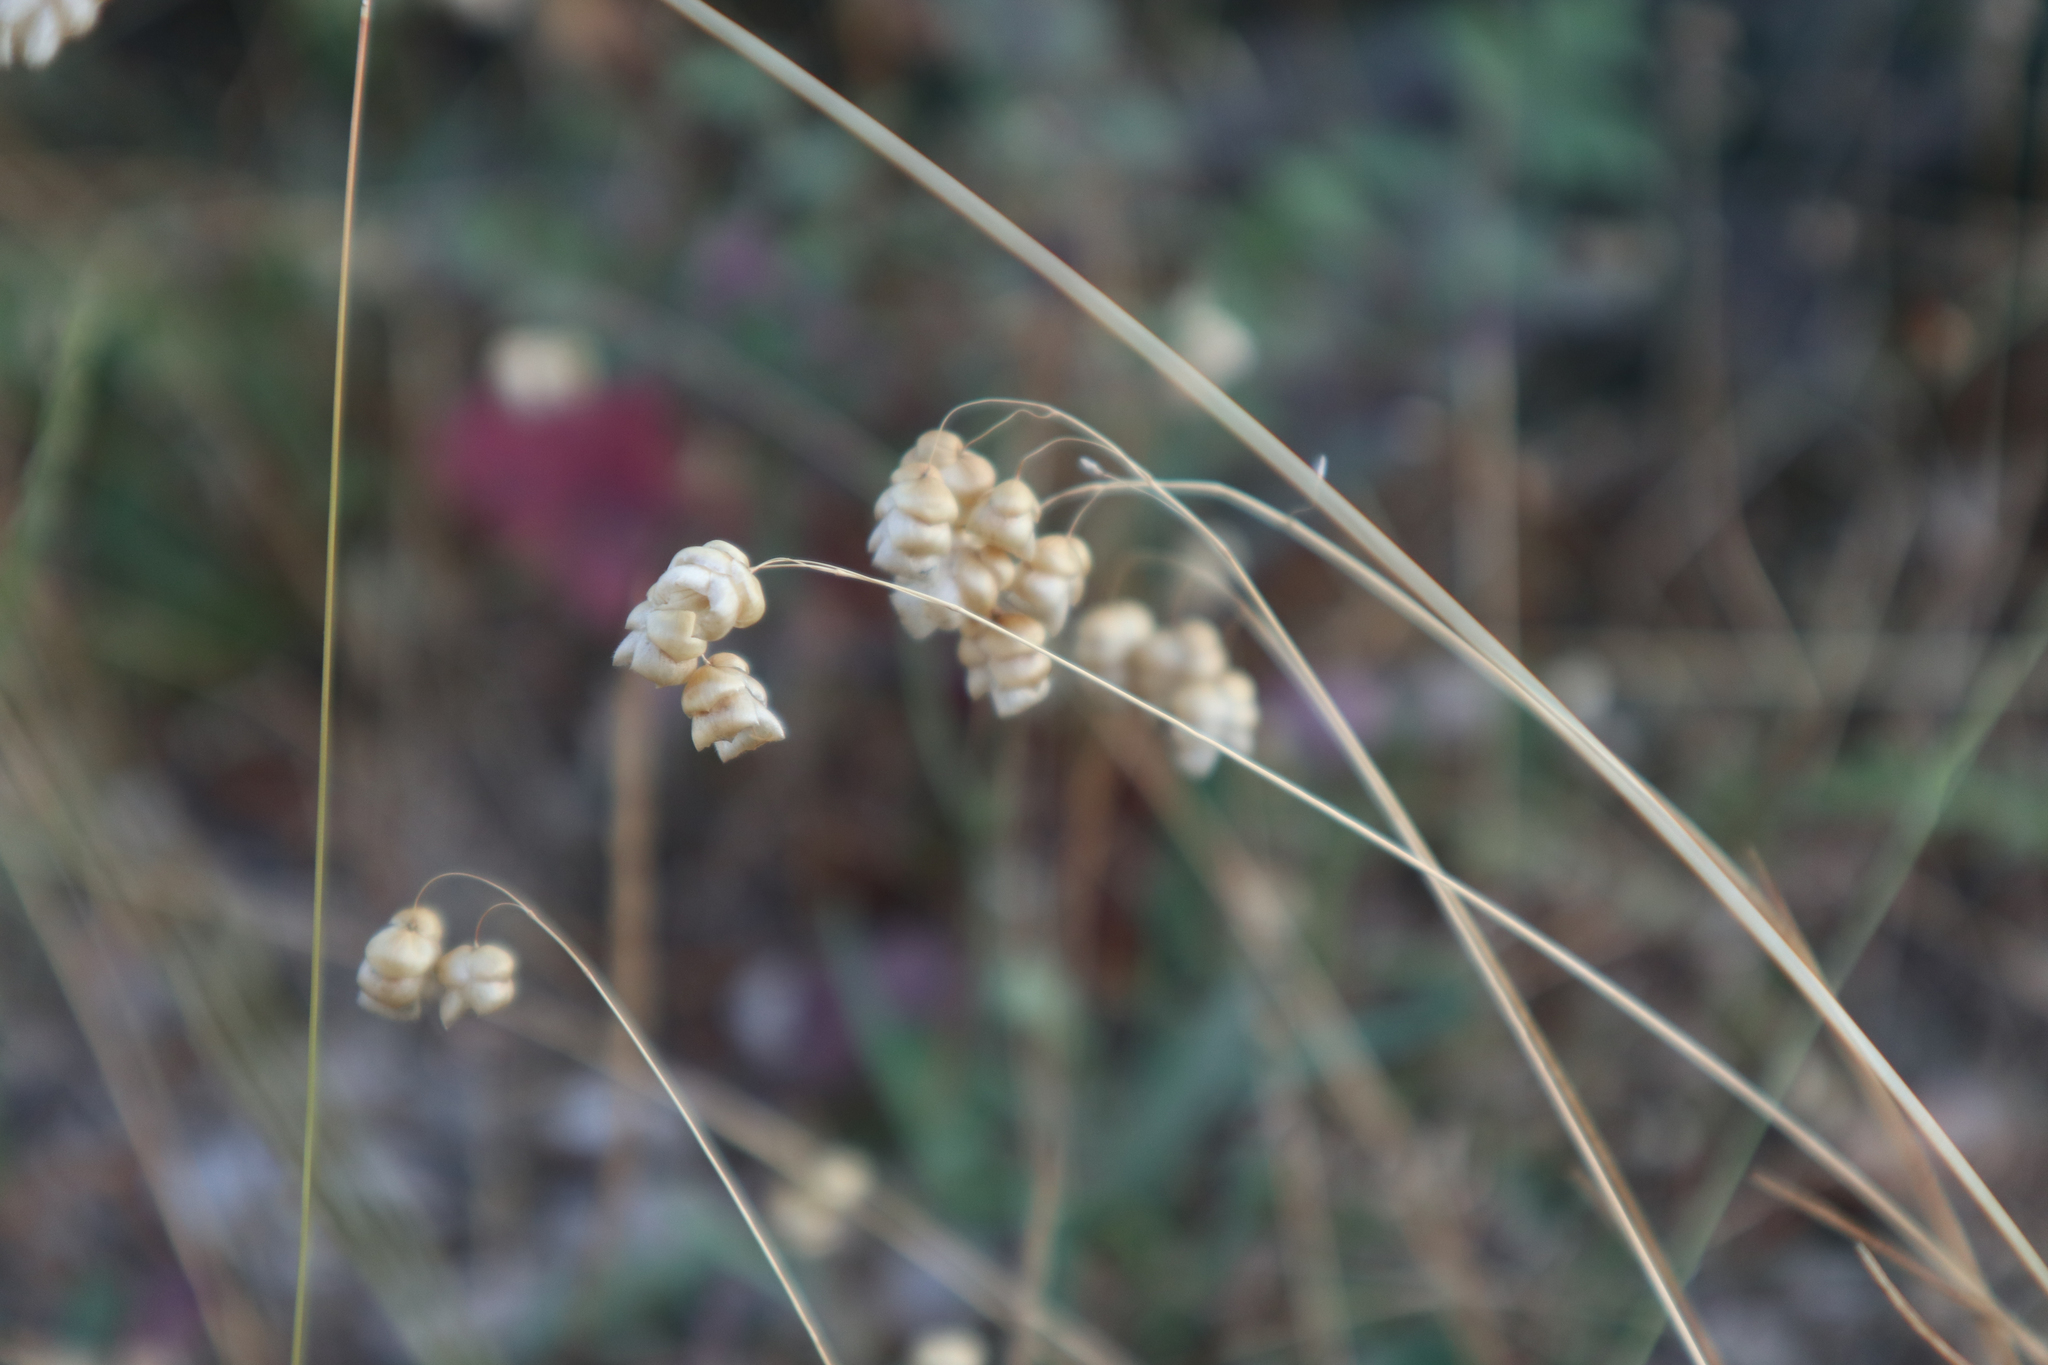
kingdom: Plantae
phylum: Tracheophyta
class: Liliopsida
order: Poales
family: Poaceae
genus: Briza
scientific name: Briza maxima
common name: Big quakinggrass
